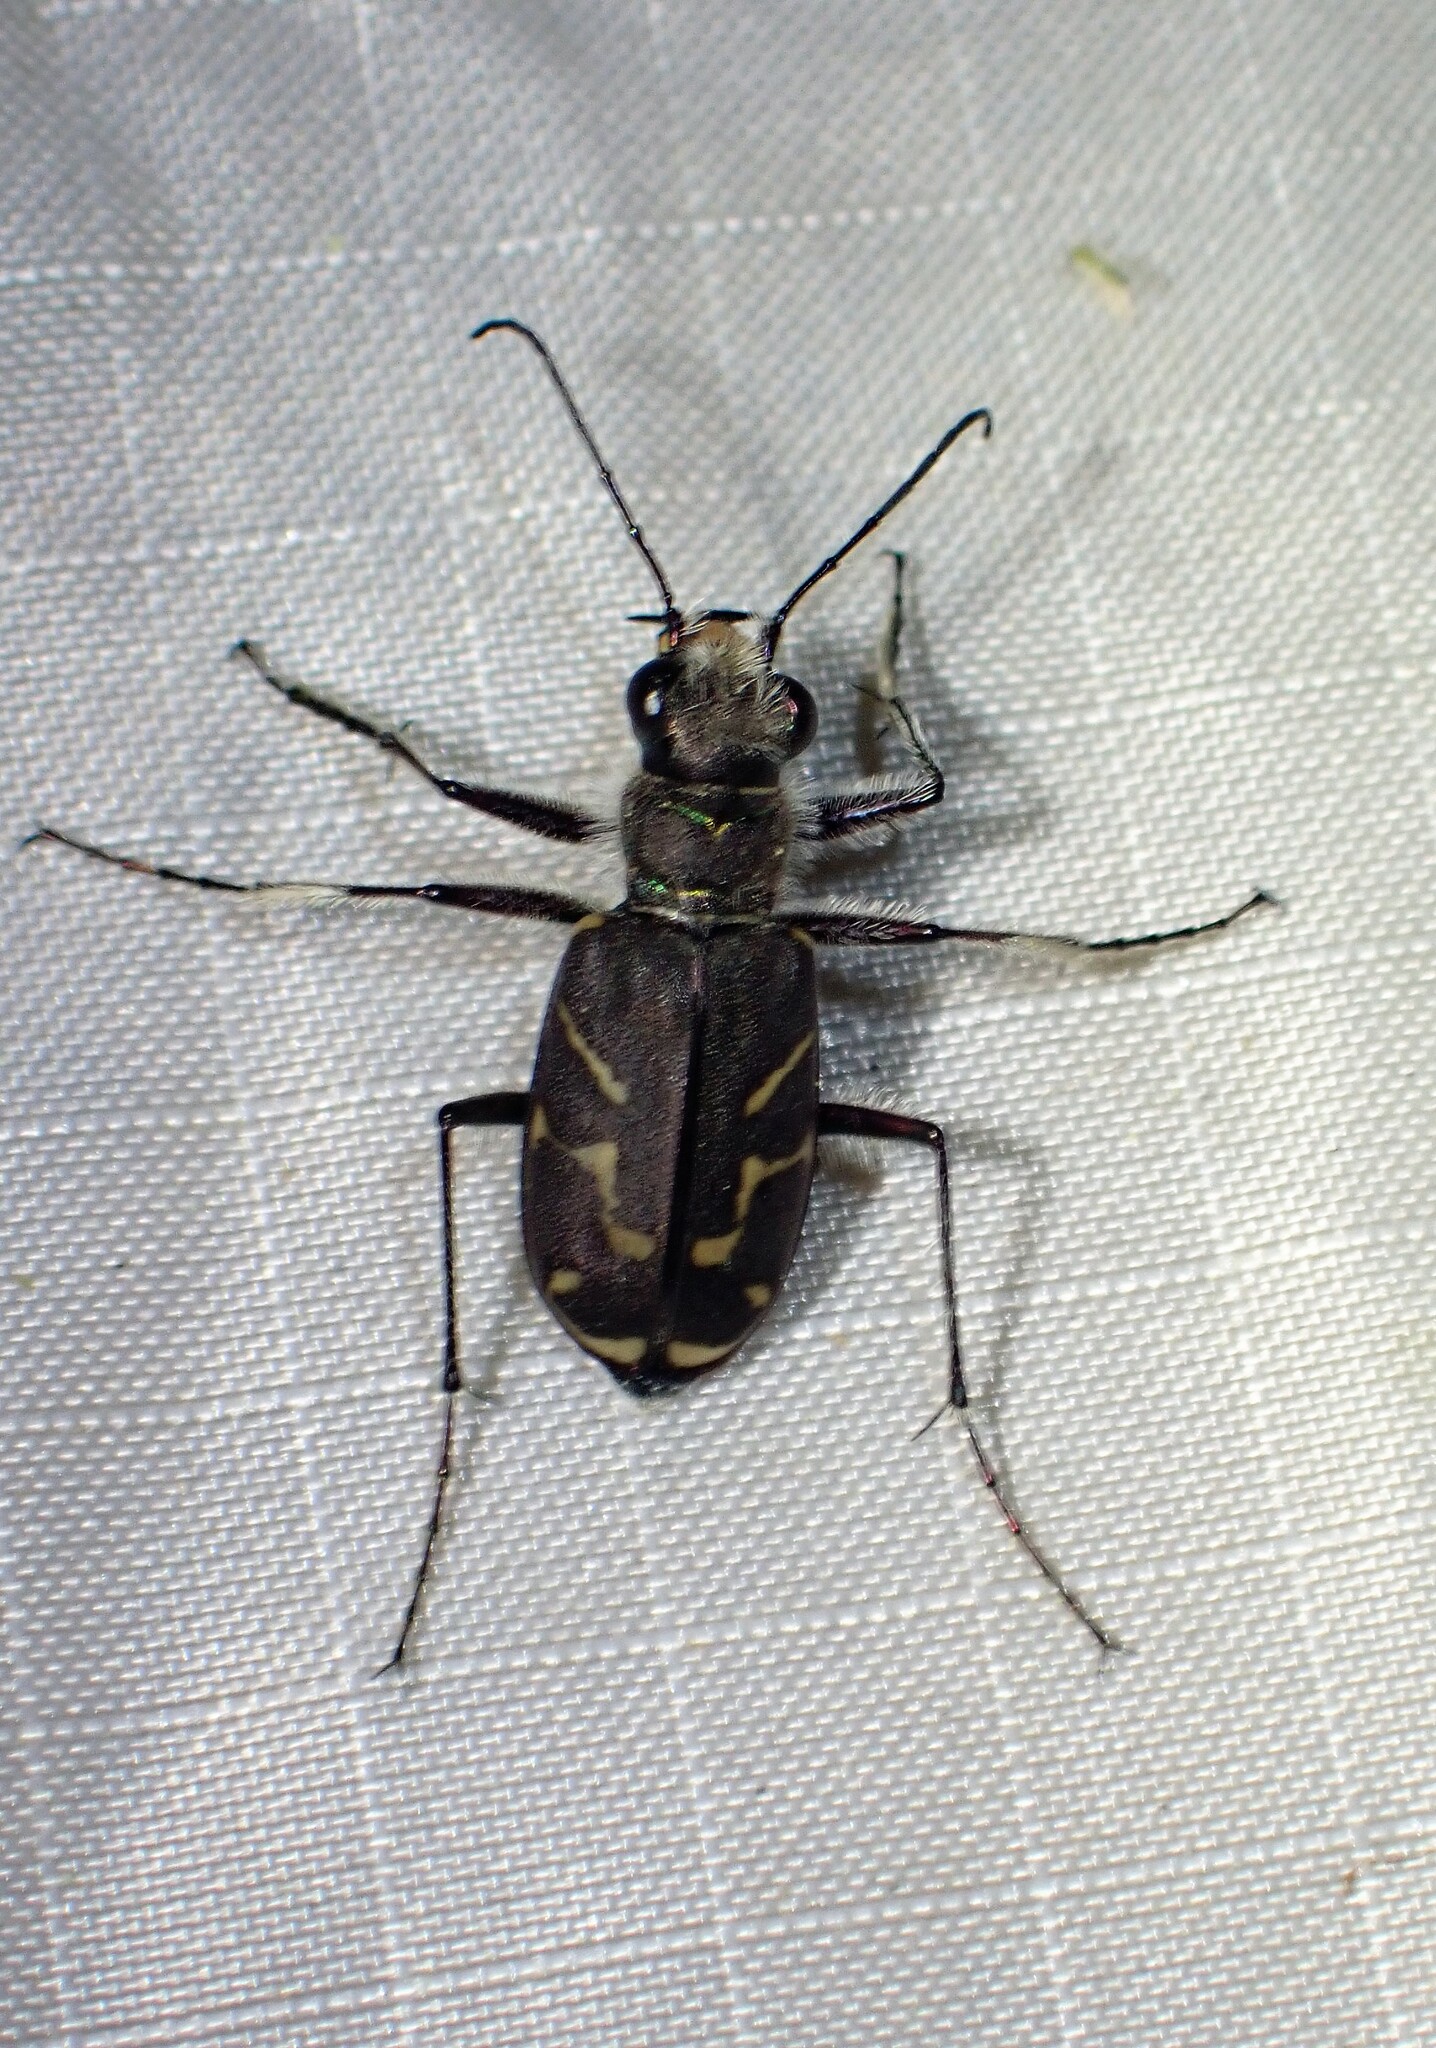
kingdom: Animalia
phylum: Arthropoda
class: Insecta
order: Coleoptera
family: Carabidae
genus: Cicindela
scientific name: Cicindela tranquebarica
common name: Oblique-lined tiger beetle
